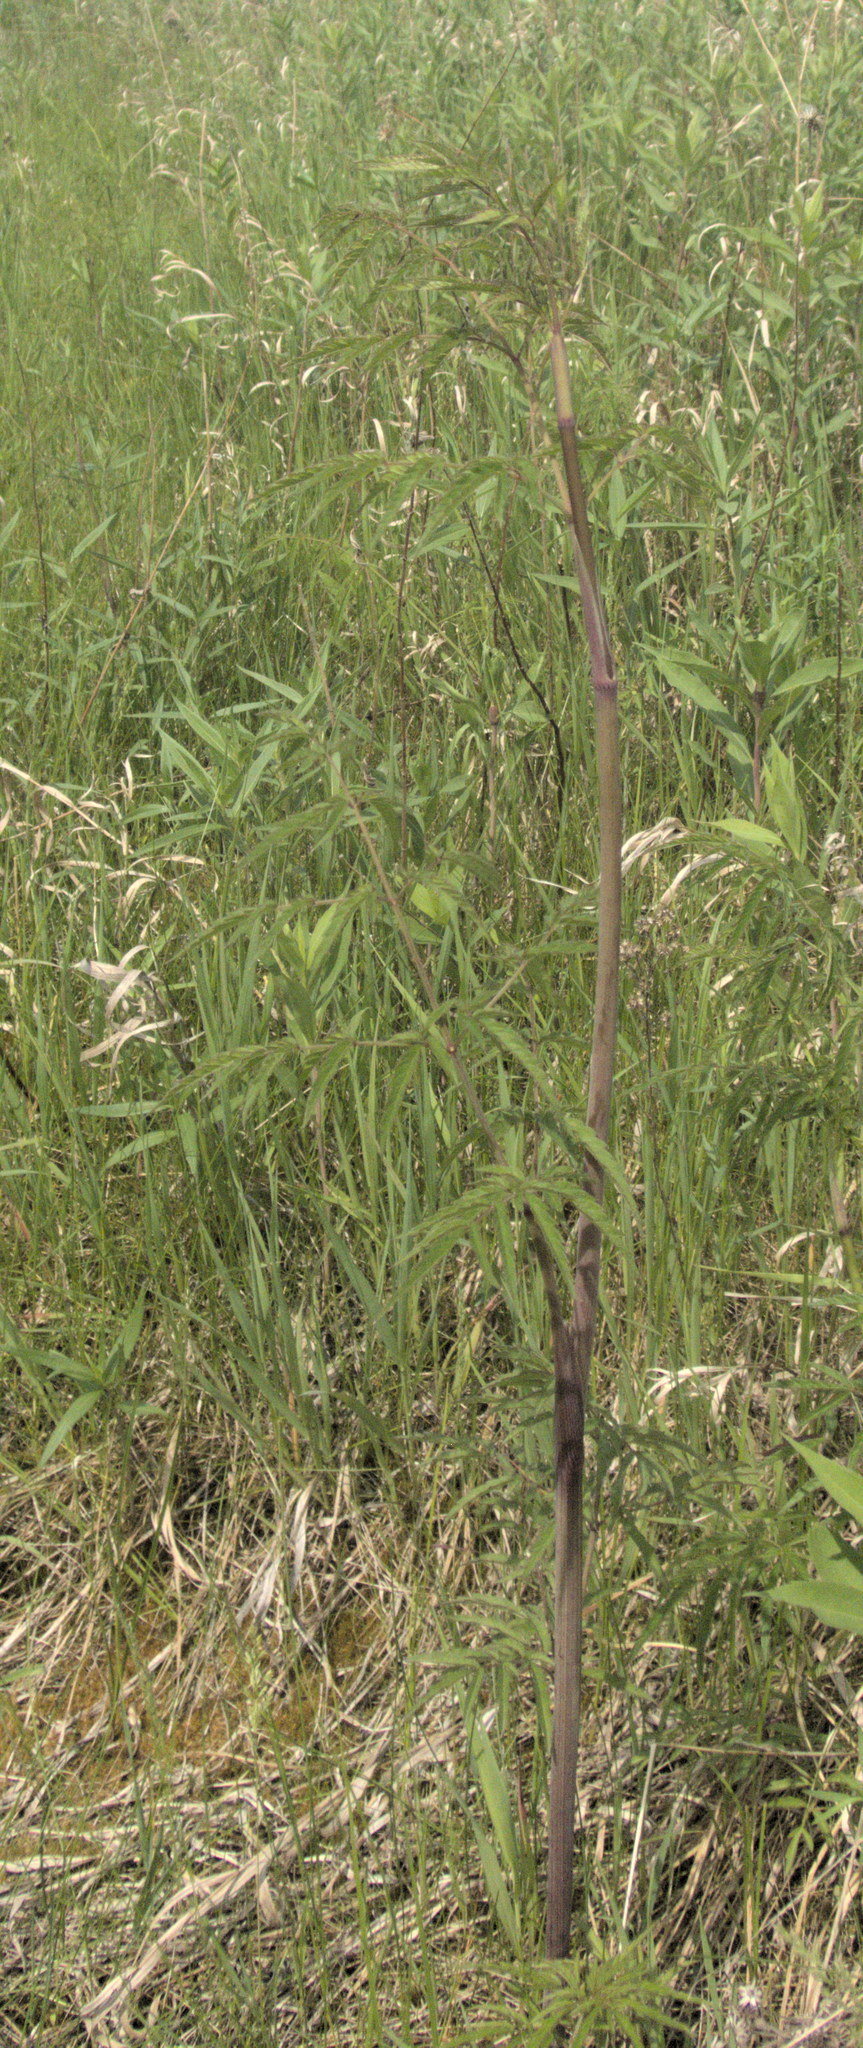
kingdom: Plantae
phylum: Tracheophyta
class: Magnoliopsida
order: Apiales
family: Apiaceae
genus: Cicuta
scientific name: Cicuta maculata
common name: Spotted cowbane
